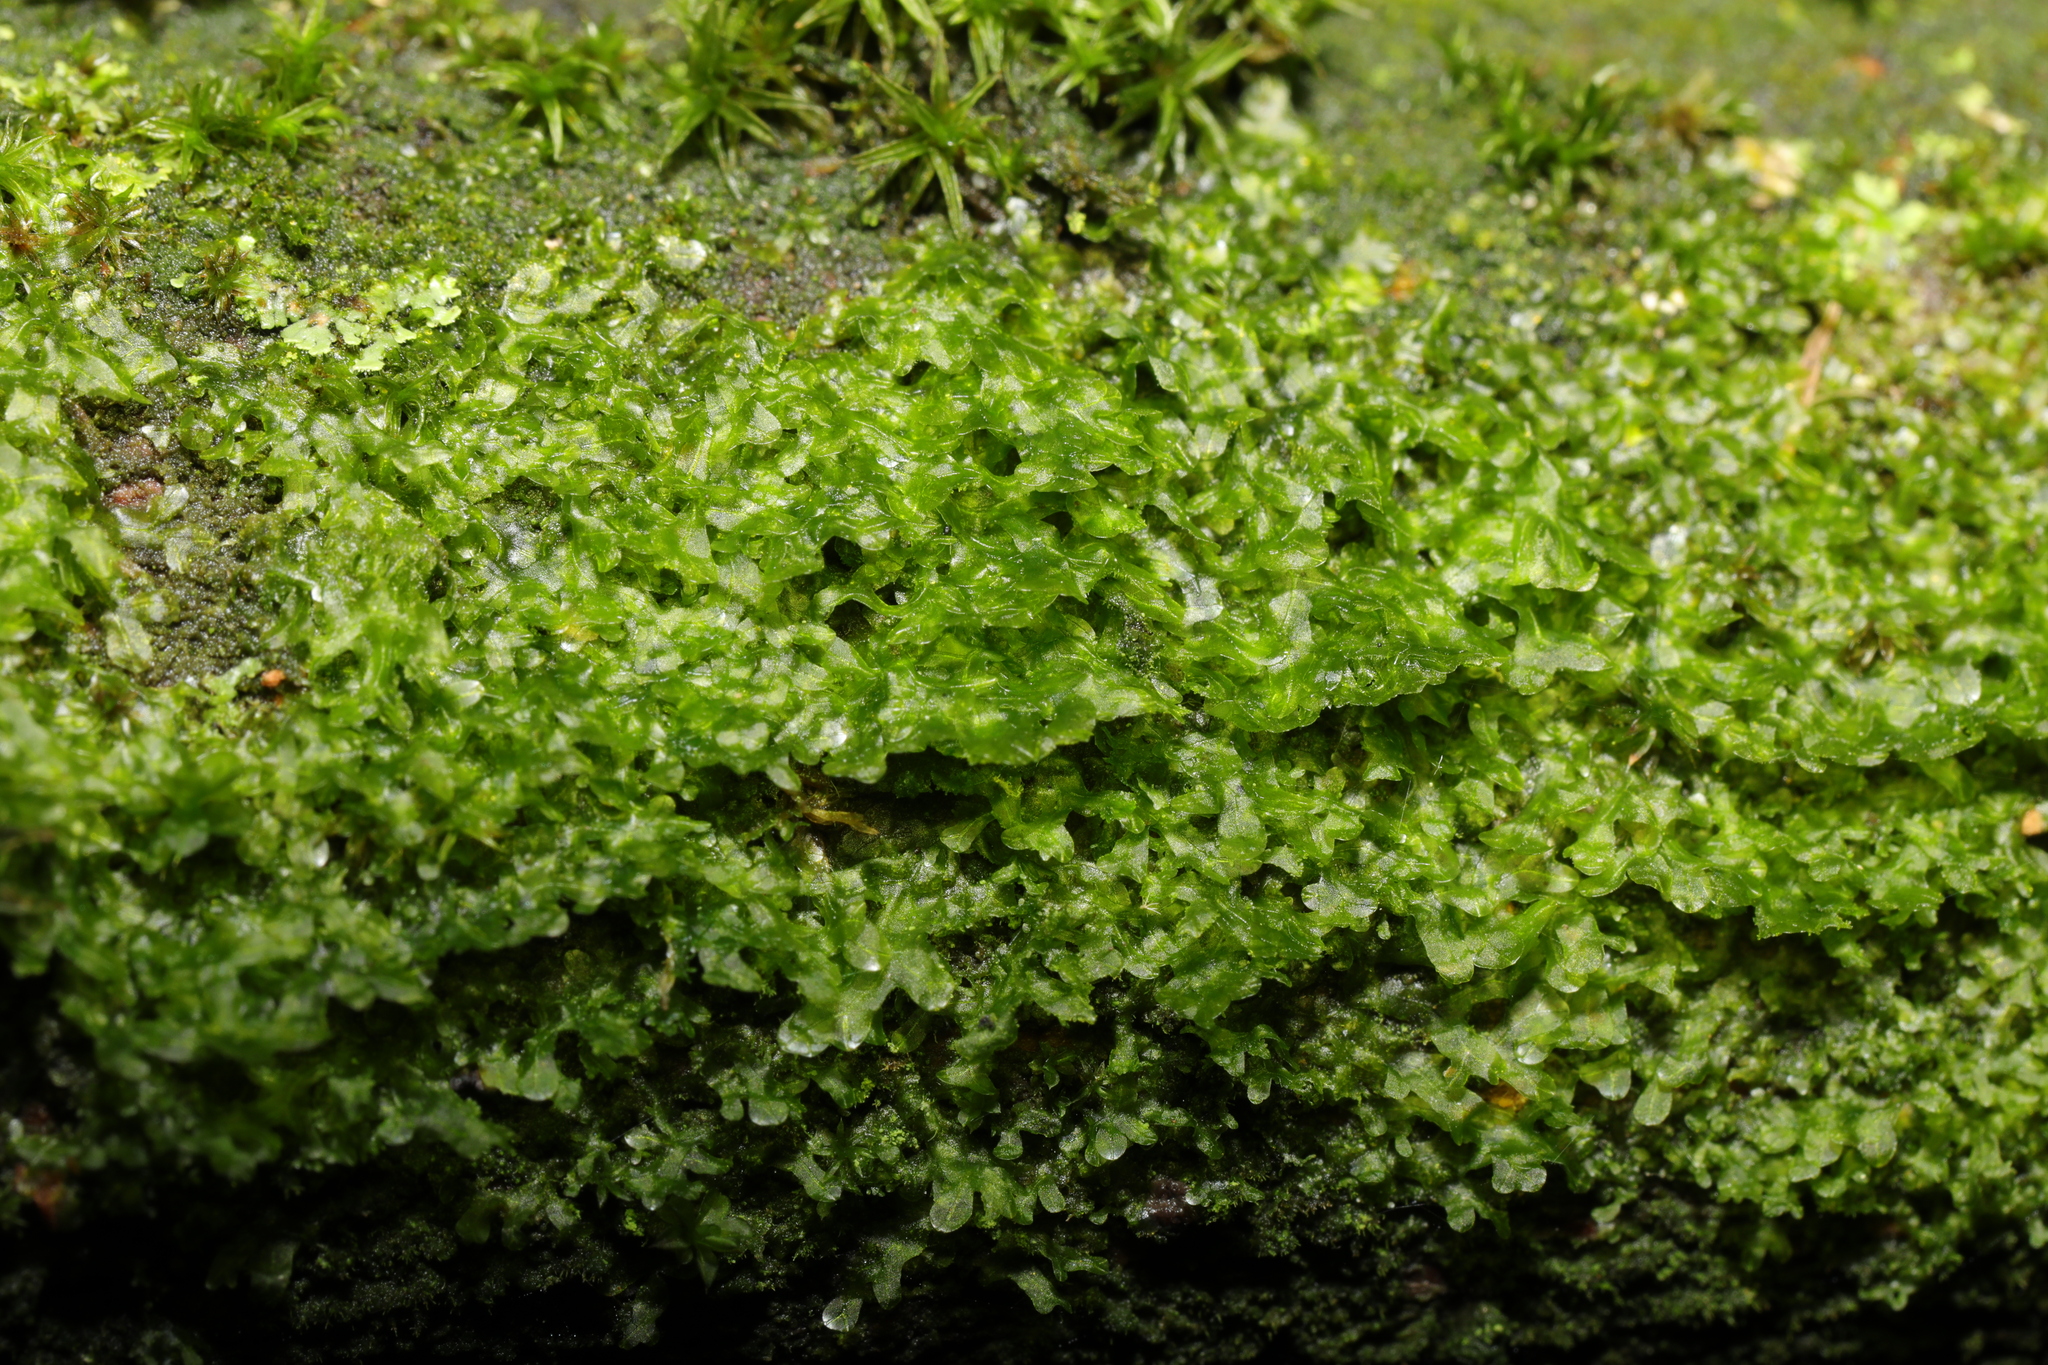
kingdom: Plantae
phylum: Marchantiophyta
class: Jungermanniopsida
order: Metzgeriales
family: Metzgeriaceae
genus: Metzgeria
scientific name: Metzgeria furcata
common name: Forked veilwort
